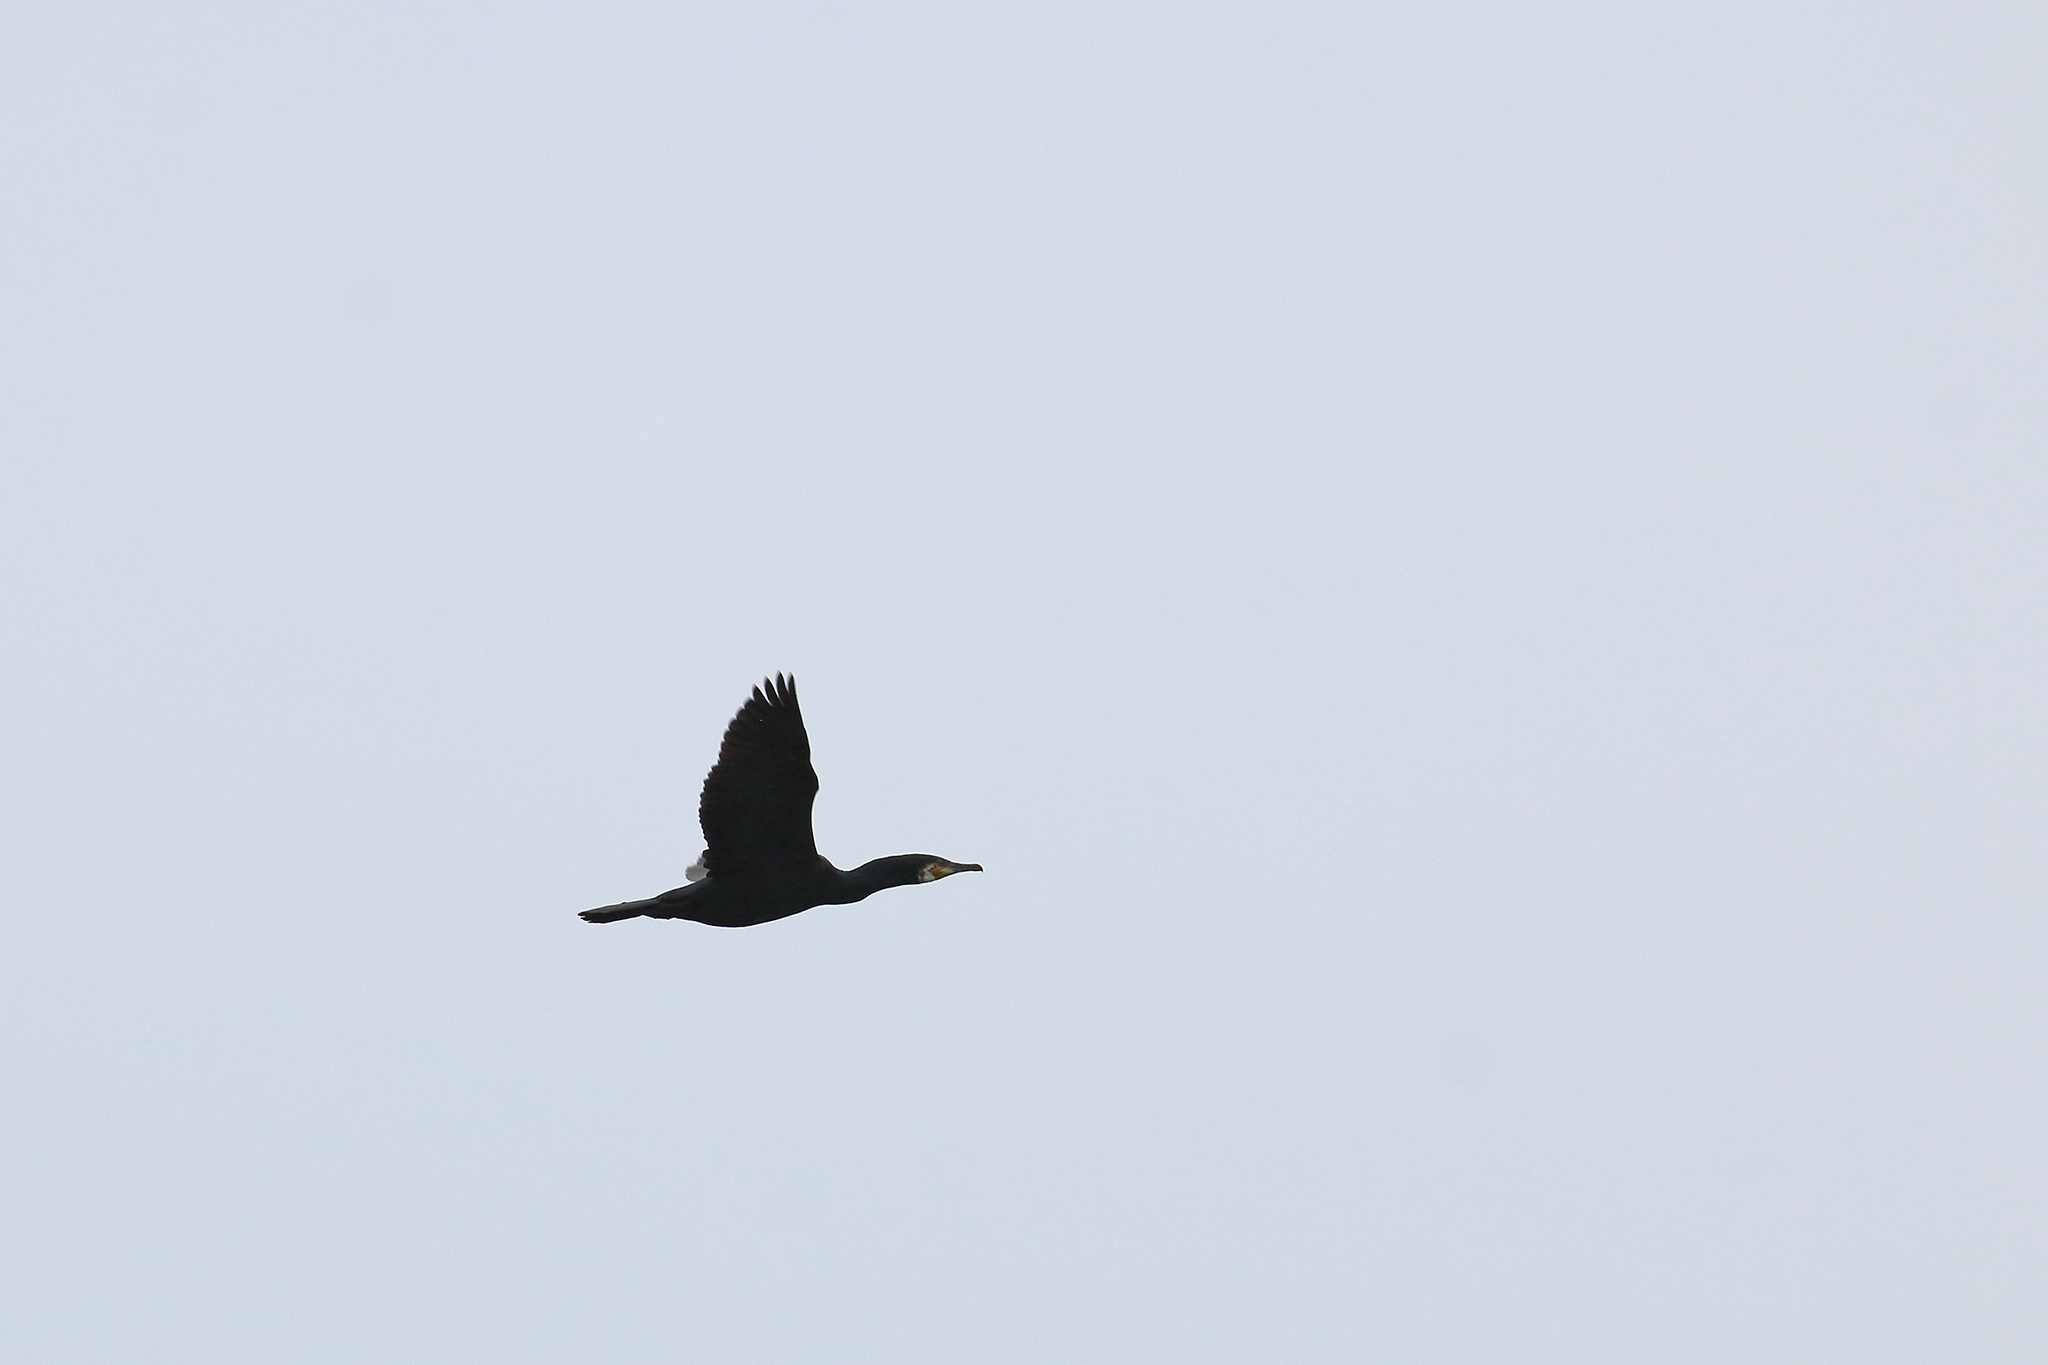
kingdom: Animalia
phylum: Chordata
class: Aves
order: Suliformes
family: Phalacrocoracidae
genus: Phalacrocorax
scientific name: Phalacrocorax carbo
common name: Great cormorant
